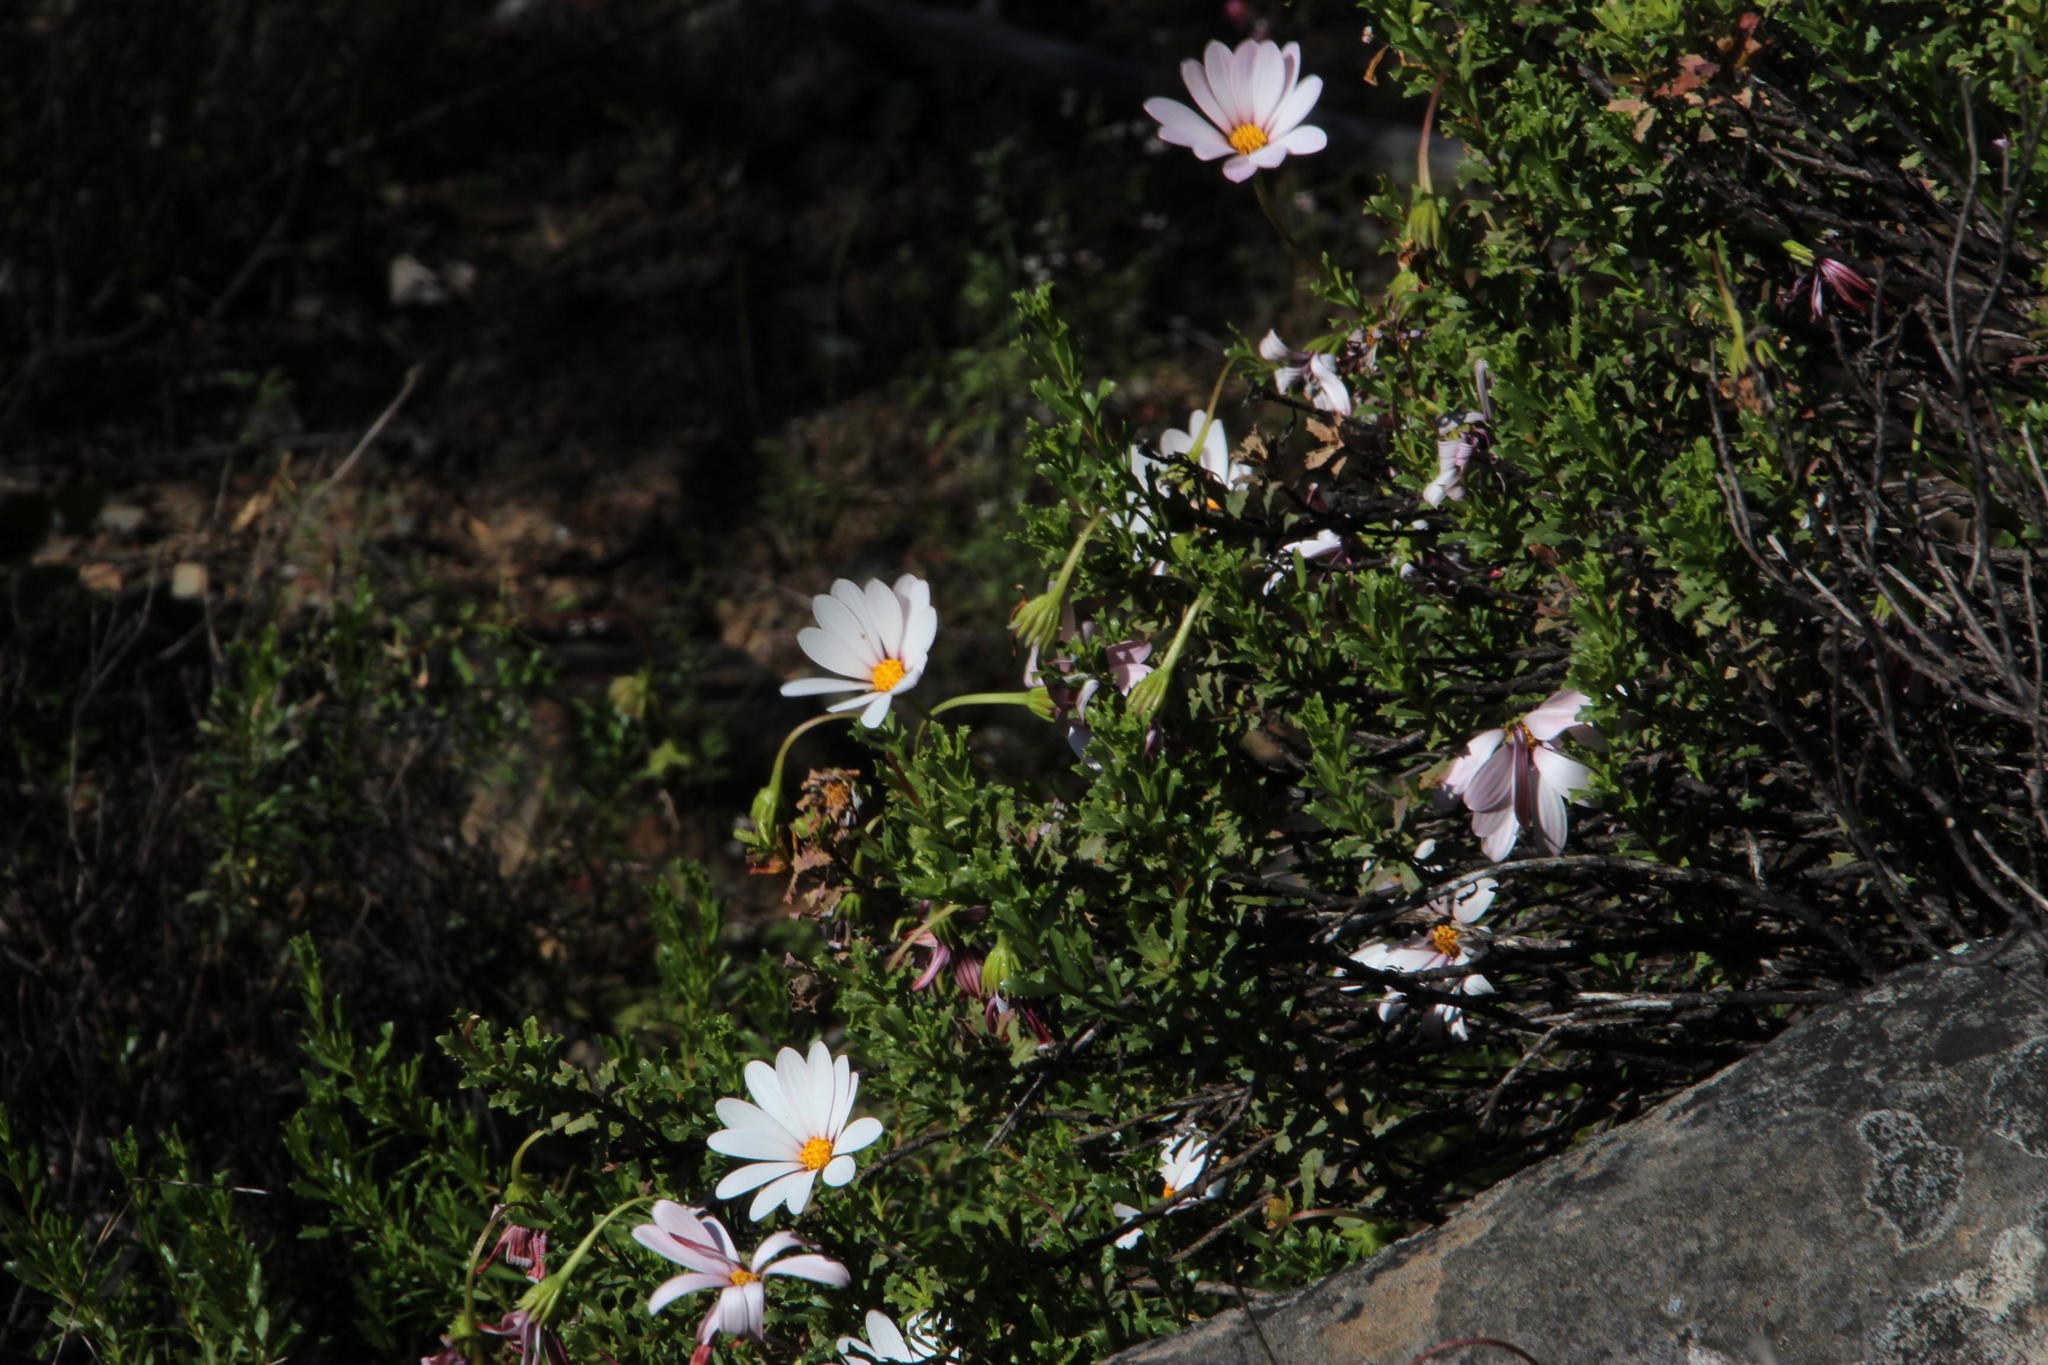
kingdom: Plantae
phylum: Tracheophyta
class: Magnoliopsida
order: Asterales
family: Asteraceae
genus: Dimorphotheca
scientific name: Dimorphotheca cuneata
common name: Daisy
